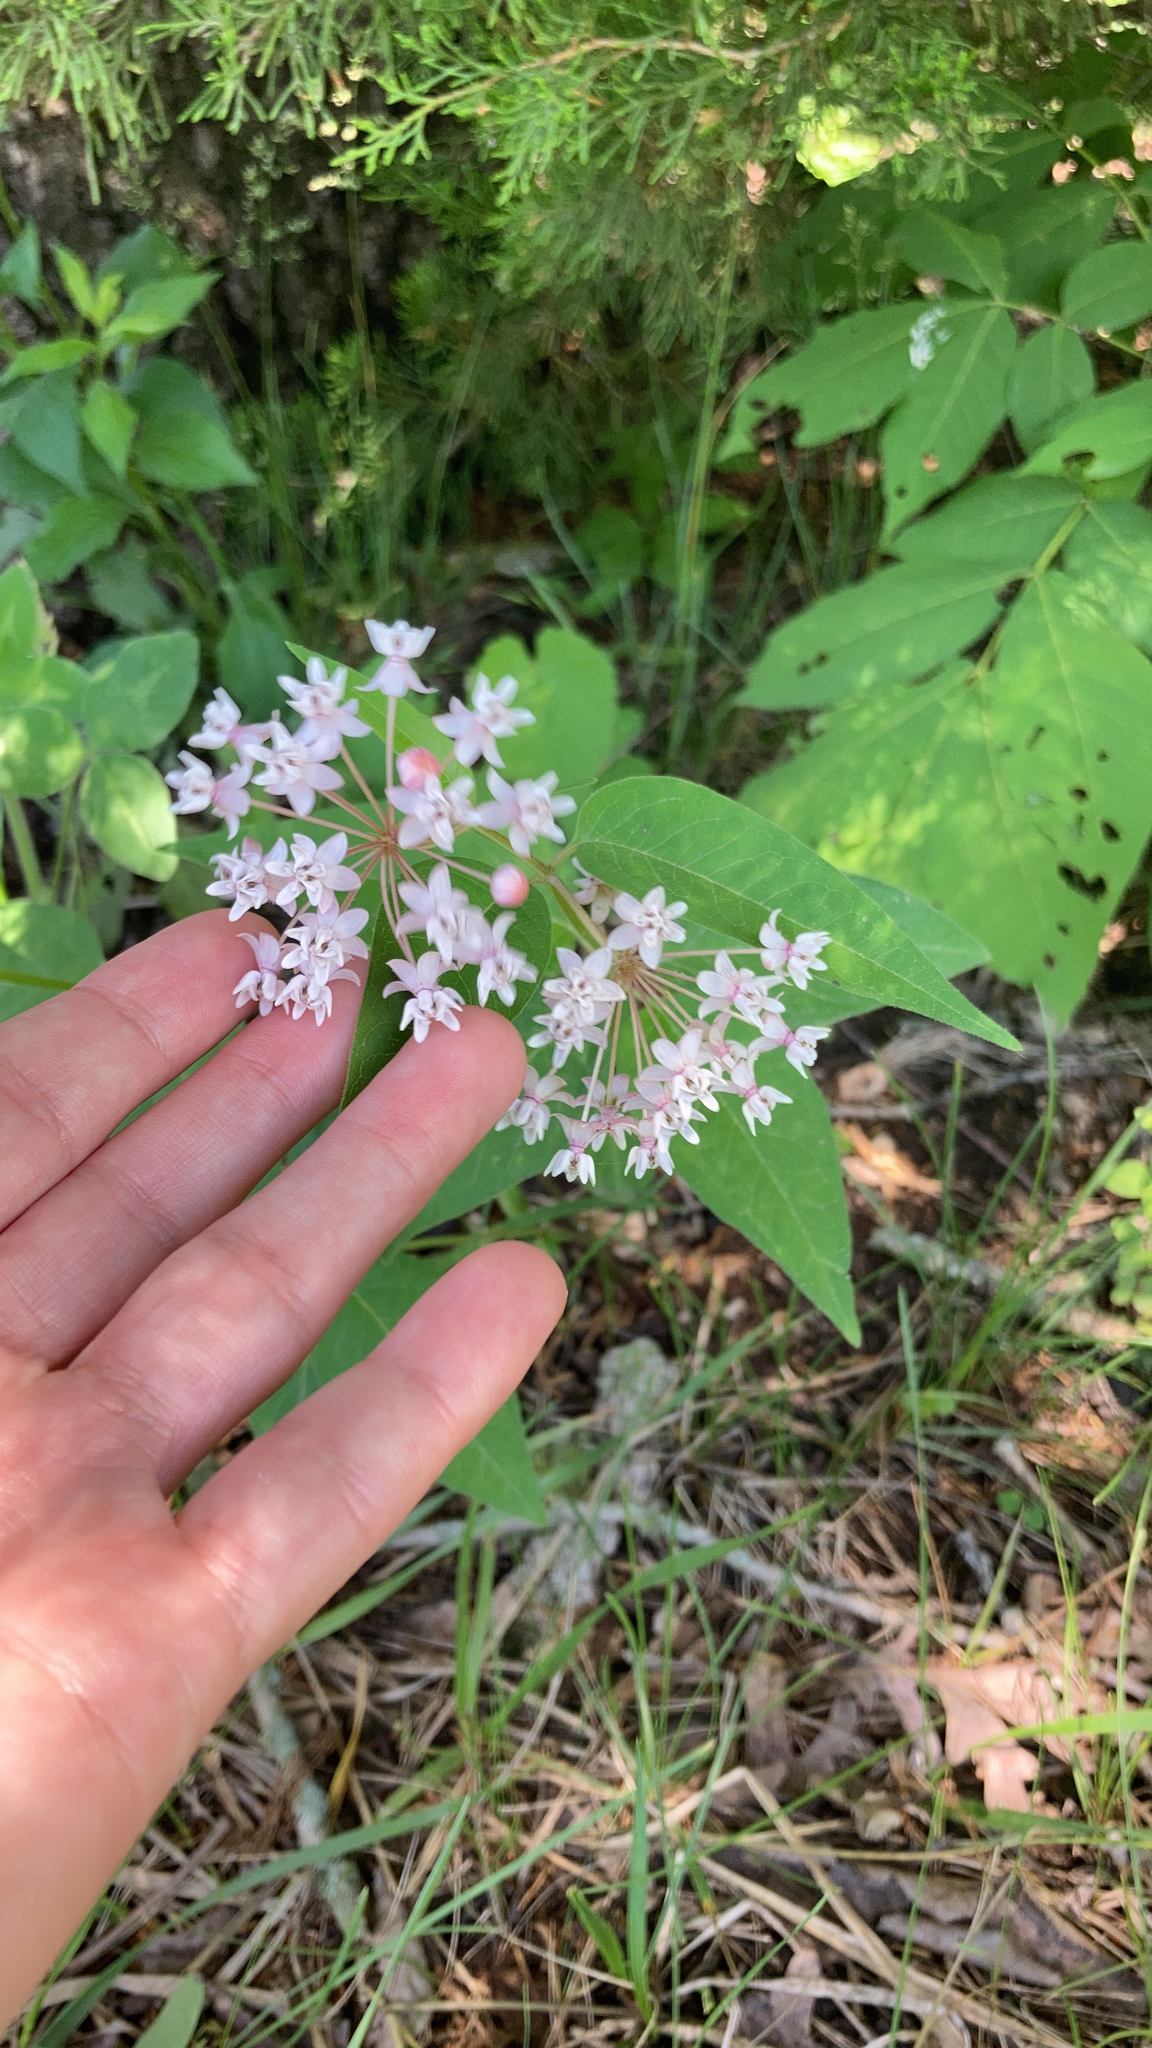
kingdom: Plantae
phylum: Tracheophyta
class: Magnoliopsida
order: Gentianales
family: Apocynaceae
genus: Asclepias
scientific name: Asclepias quadrifolia
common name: Whorled milkweed
